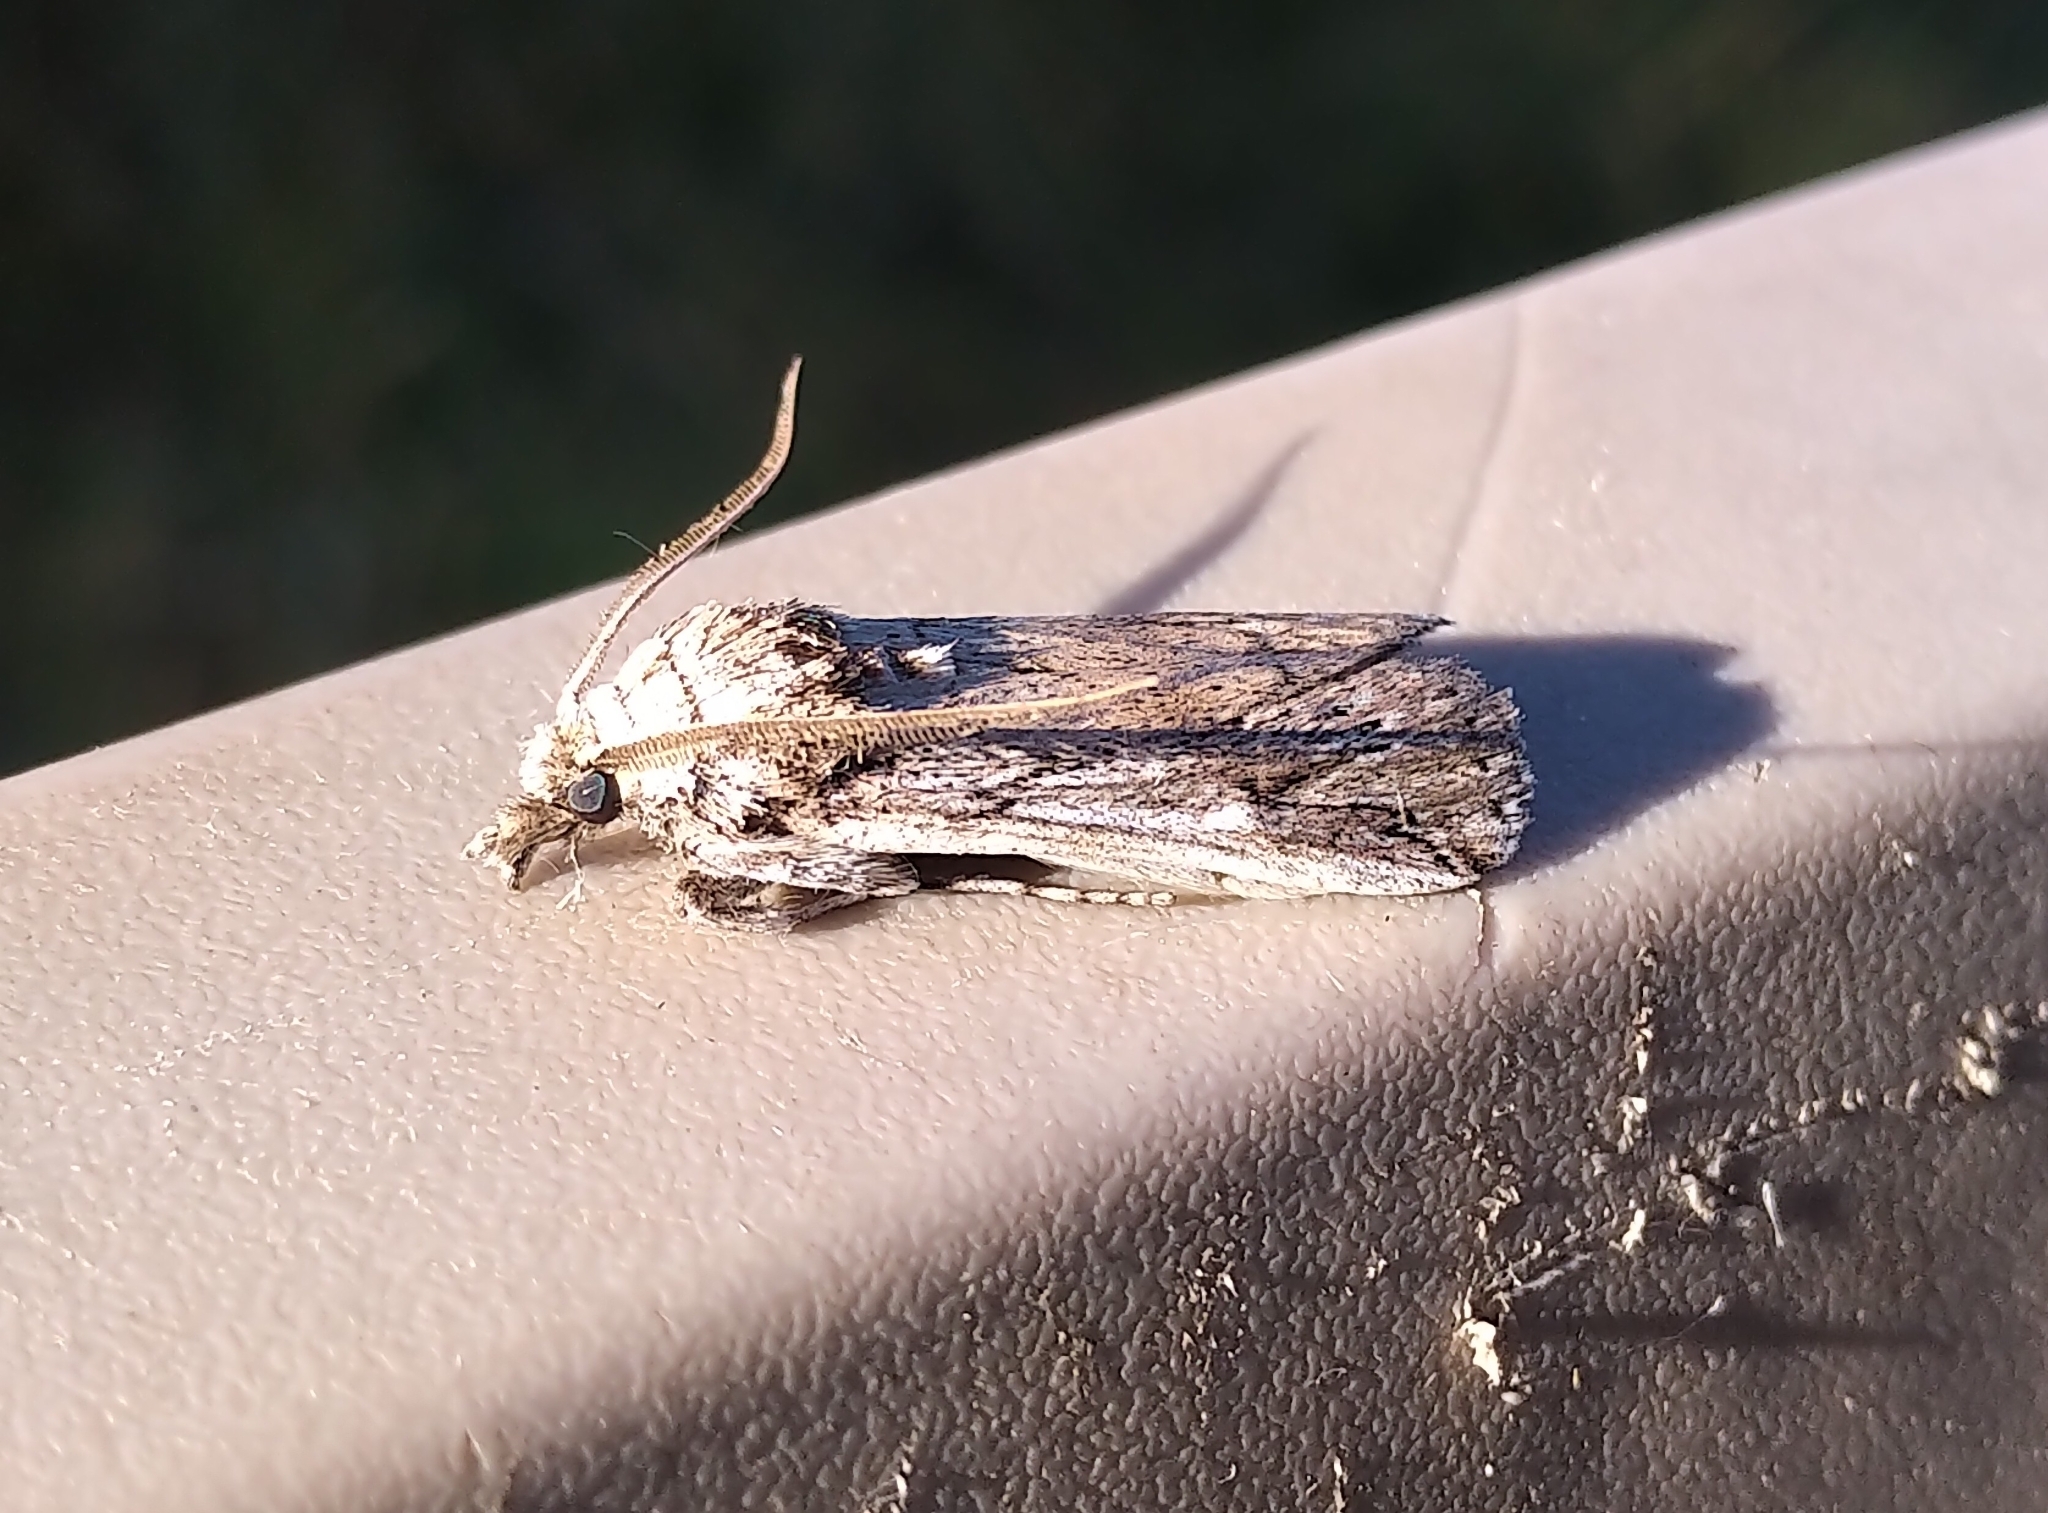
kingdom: Animalia
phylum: Arthropoda
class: Insecta
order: Lepidoptera
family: Pyralidae
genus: Melitara
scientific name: Melitara dentata
